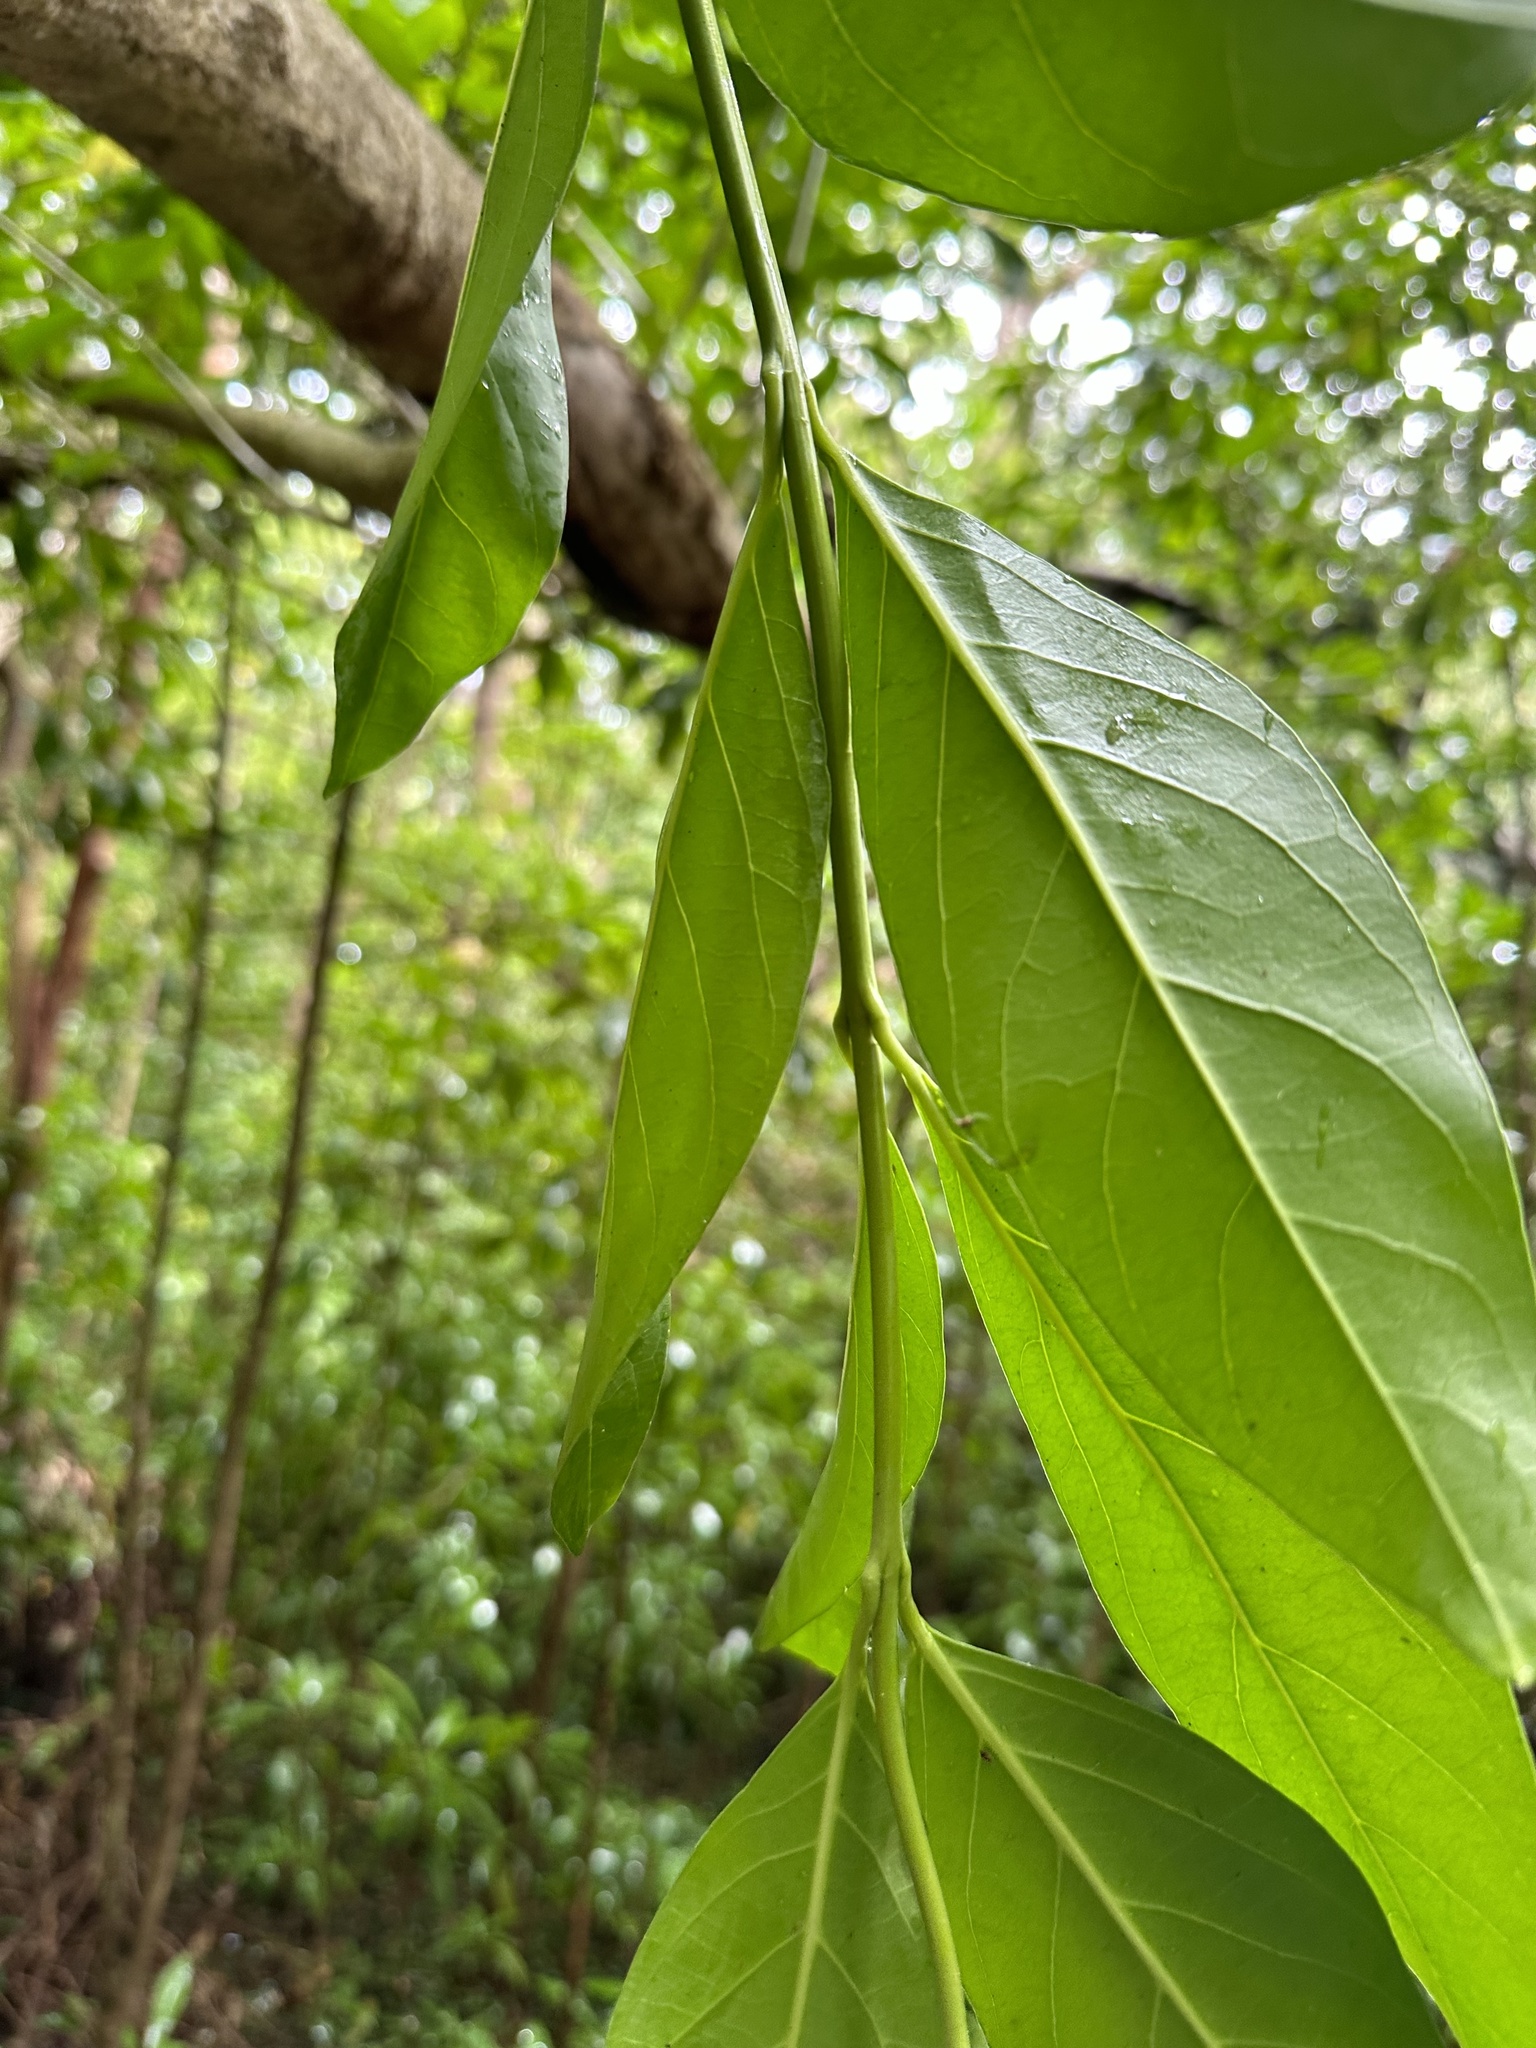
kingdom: Plantae
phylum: Tracheophyta
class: Magnoliopsida
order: Lamiales
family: Verbenaceae
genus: Citharexylum
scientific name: Citharexylum caudatum
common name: Fiddlewood
